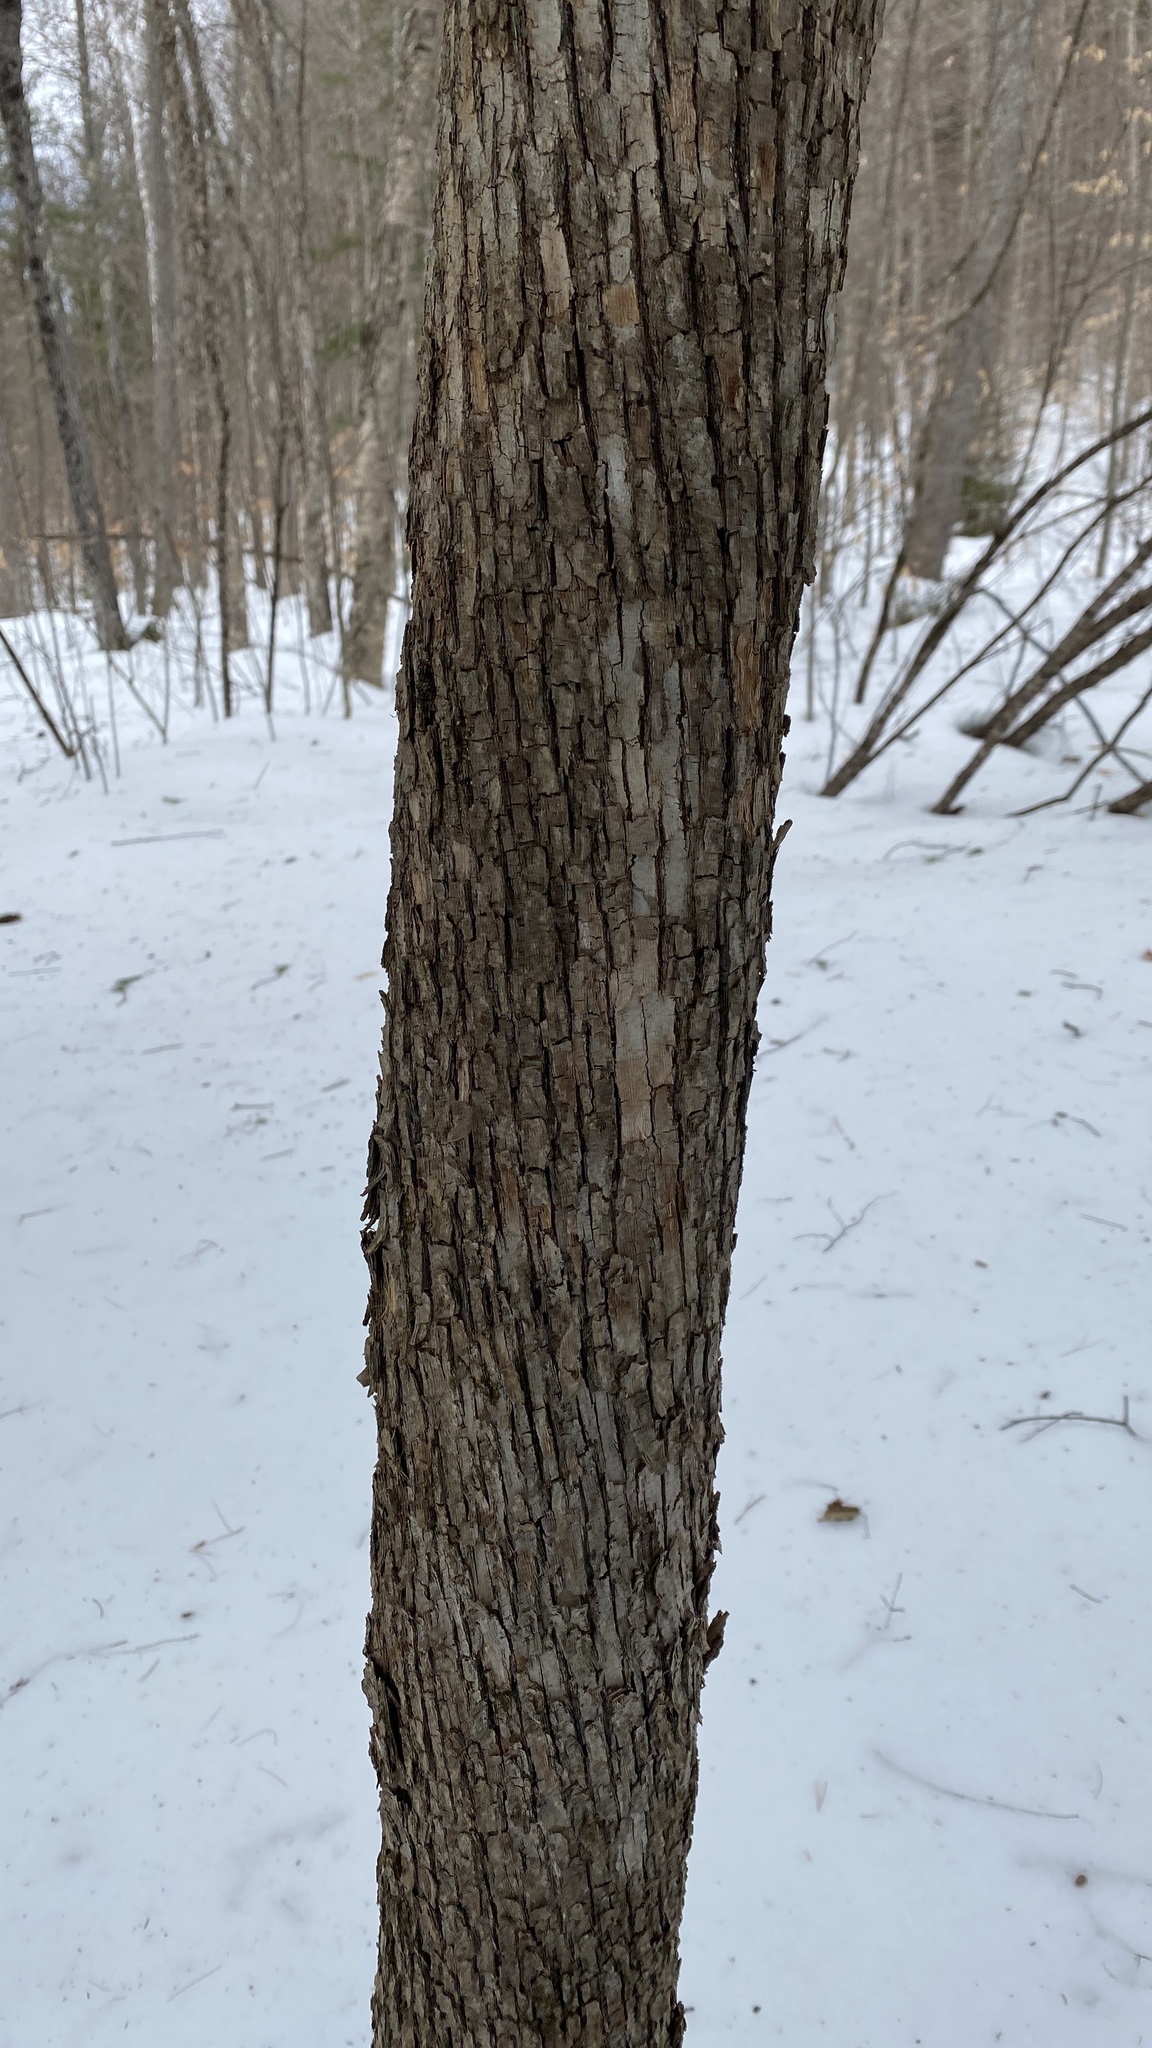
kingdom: Plantae
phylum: Tracheophyta
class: Magnoliopsida
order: Fagales
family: Betulaceae
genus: Ostrya
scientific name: Ostrya virginiana
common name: Ironwood
